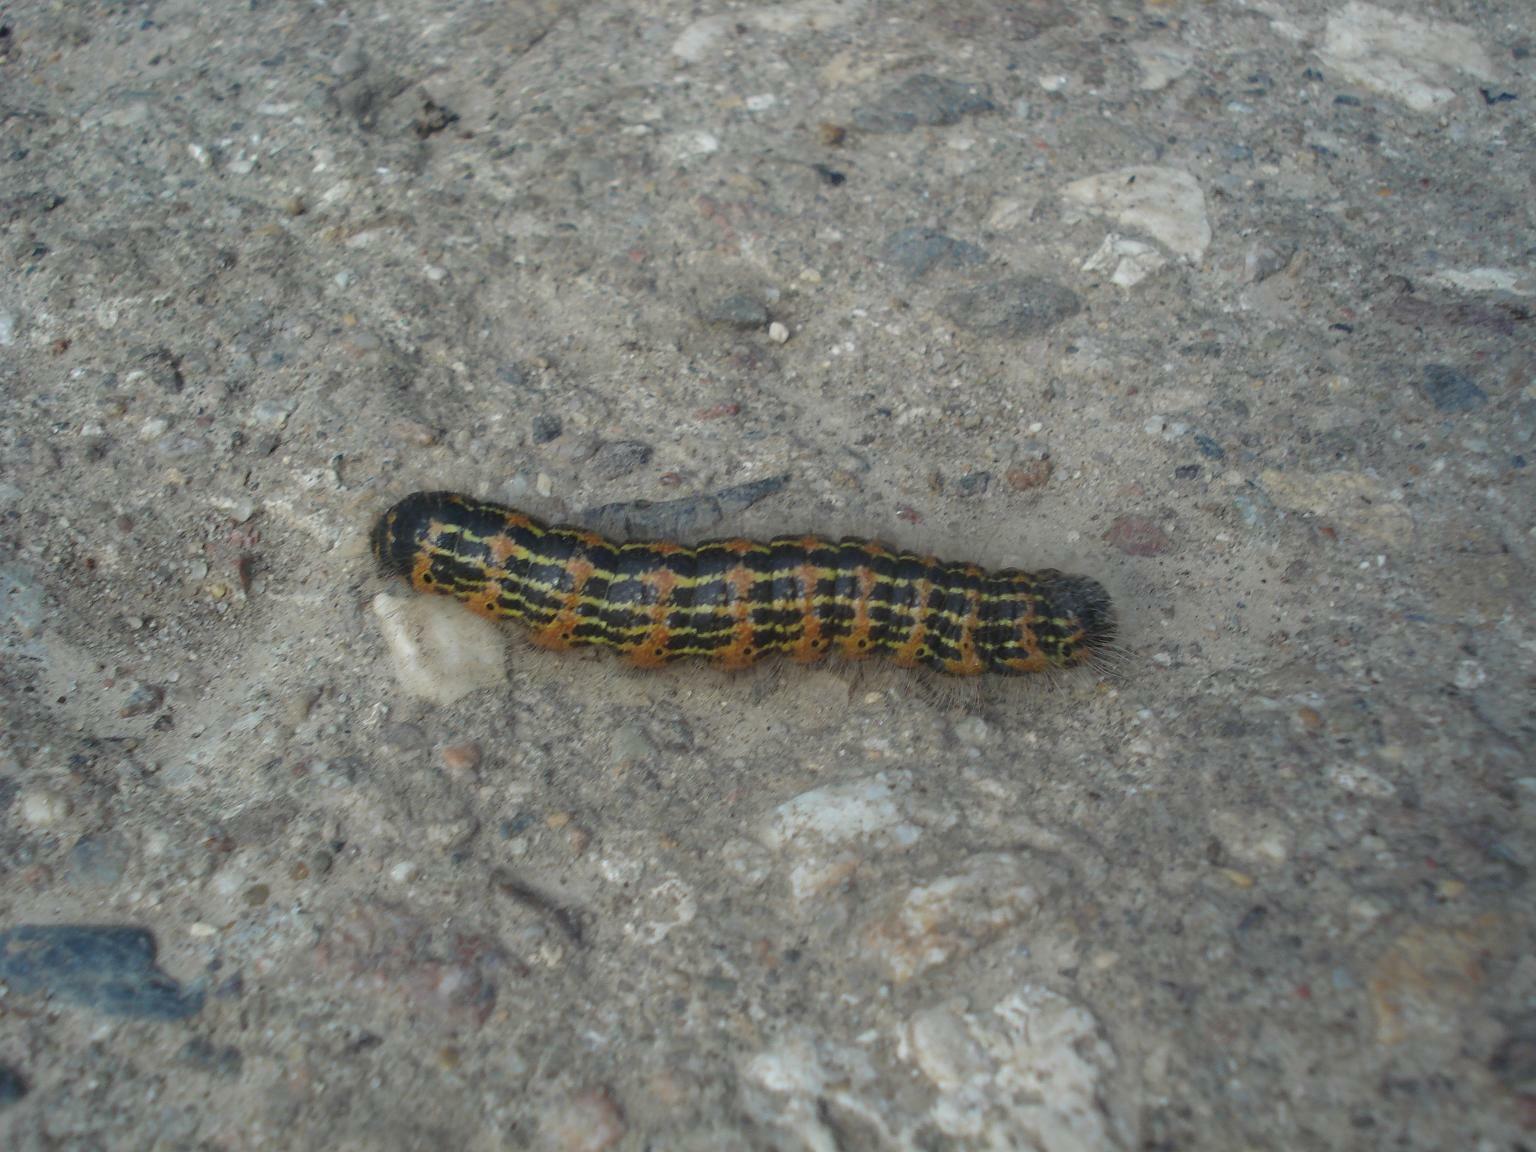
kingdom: Animalia
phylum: Arthropoda
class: Insecta
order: Lepidoptera
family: Notodontidae
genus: Phalera
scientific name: Phalera bucephala
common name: Buff-tip
